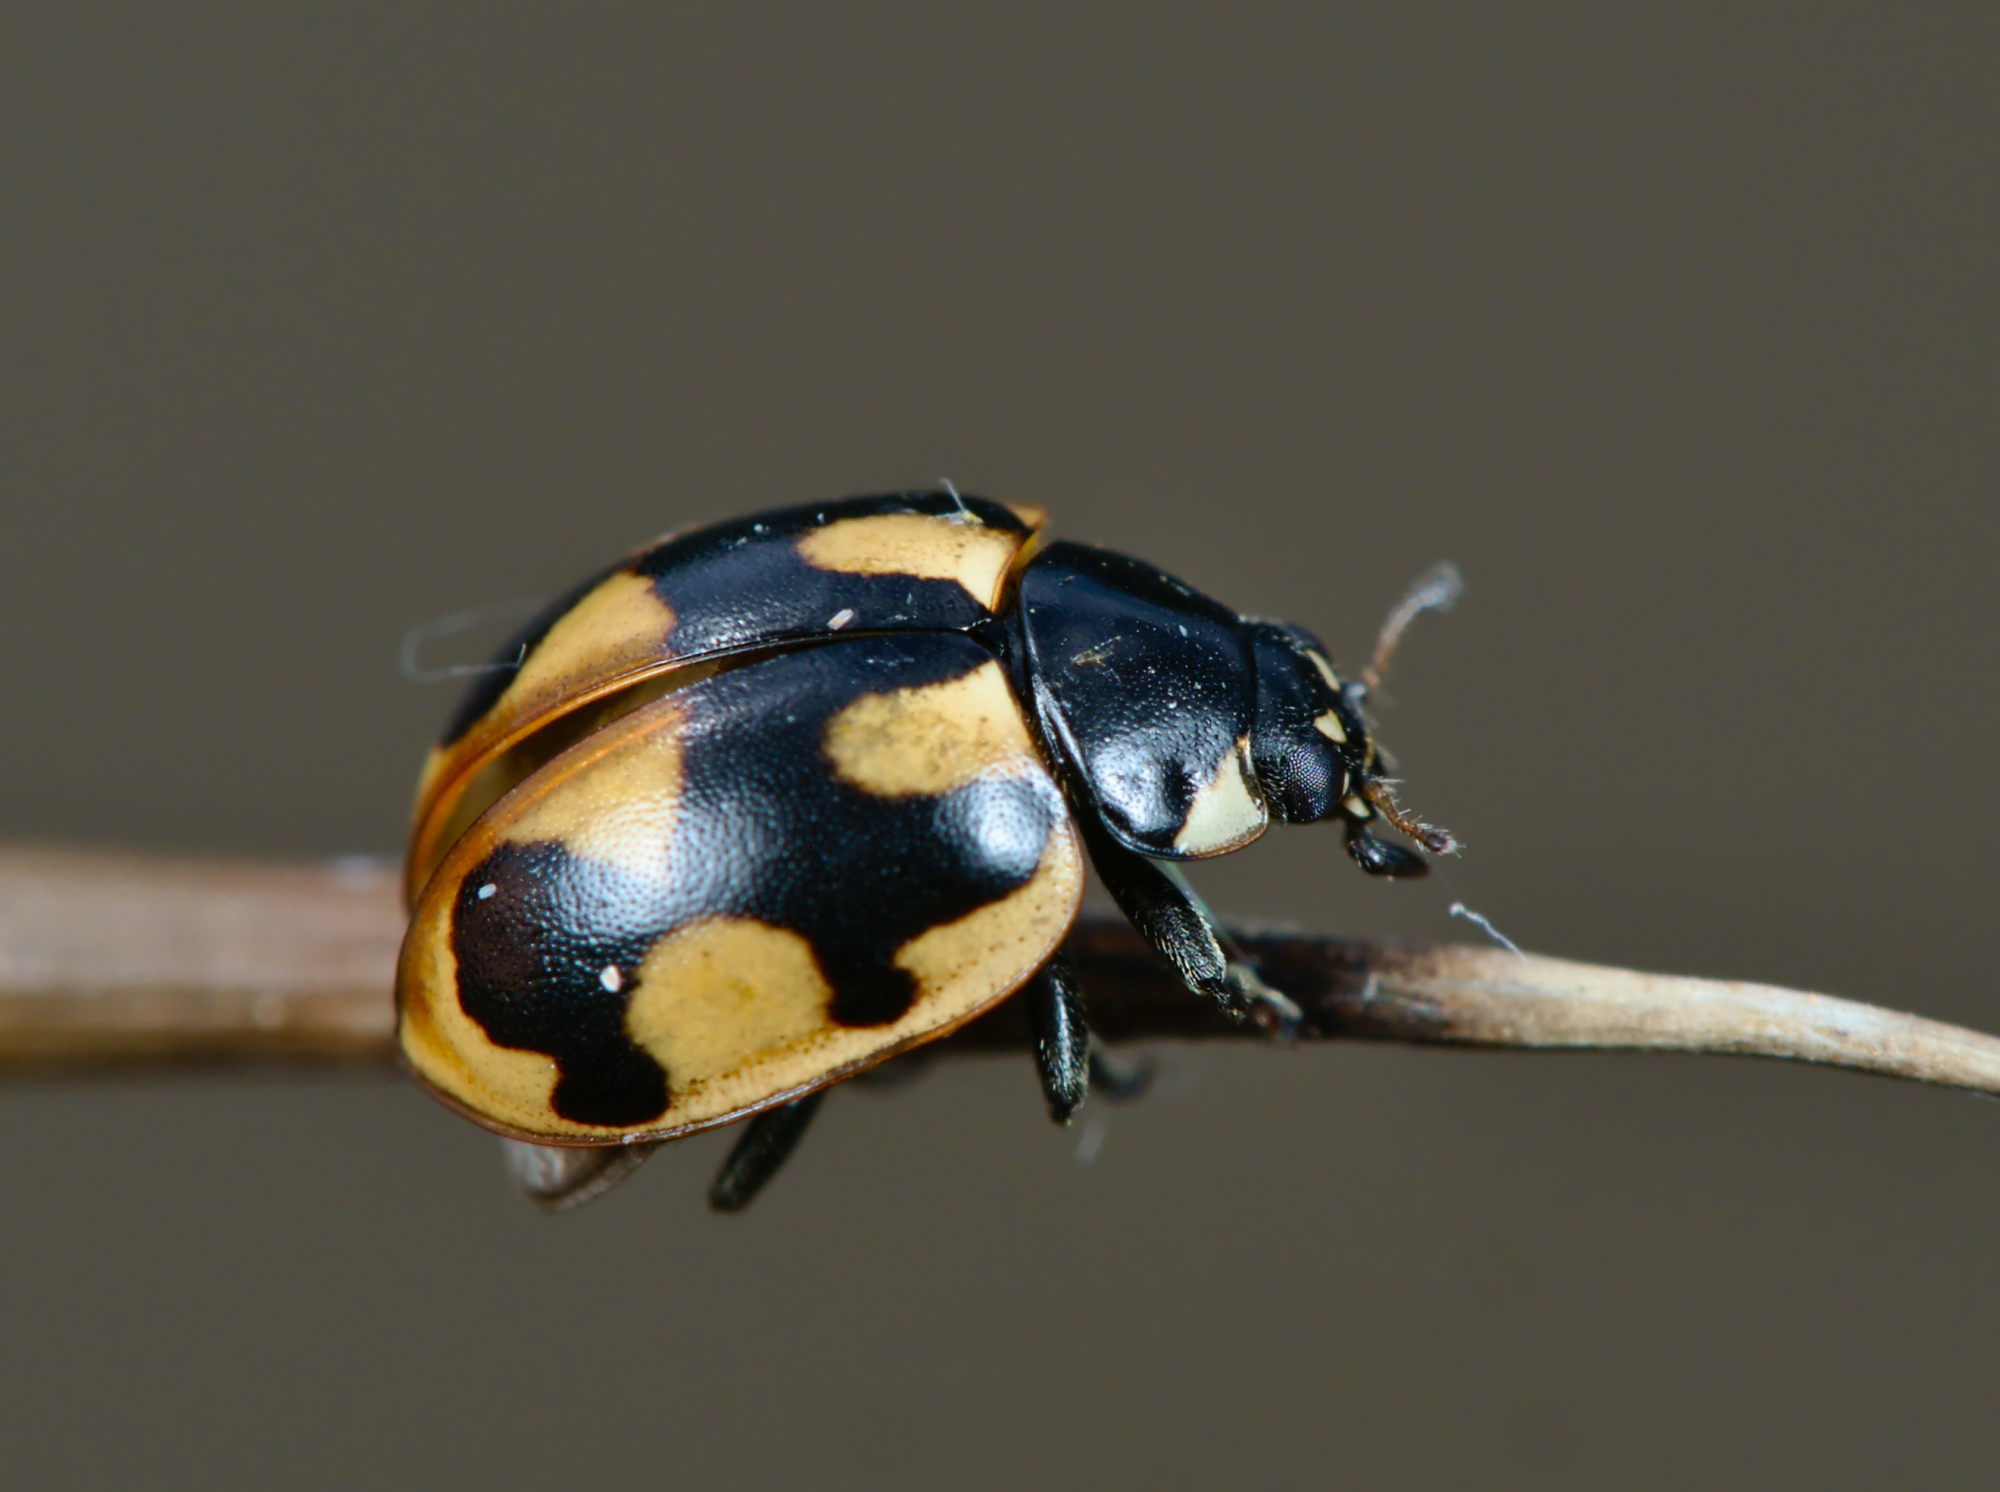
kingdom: Animalia
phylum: Arthropoda
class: Insecta
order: Coleoptera
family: Coccinellidae
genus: Coccinella
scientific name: Coccinella hieroglyphica
